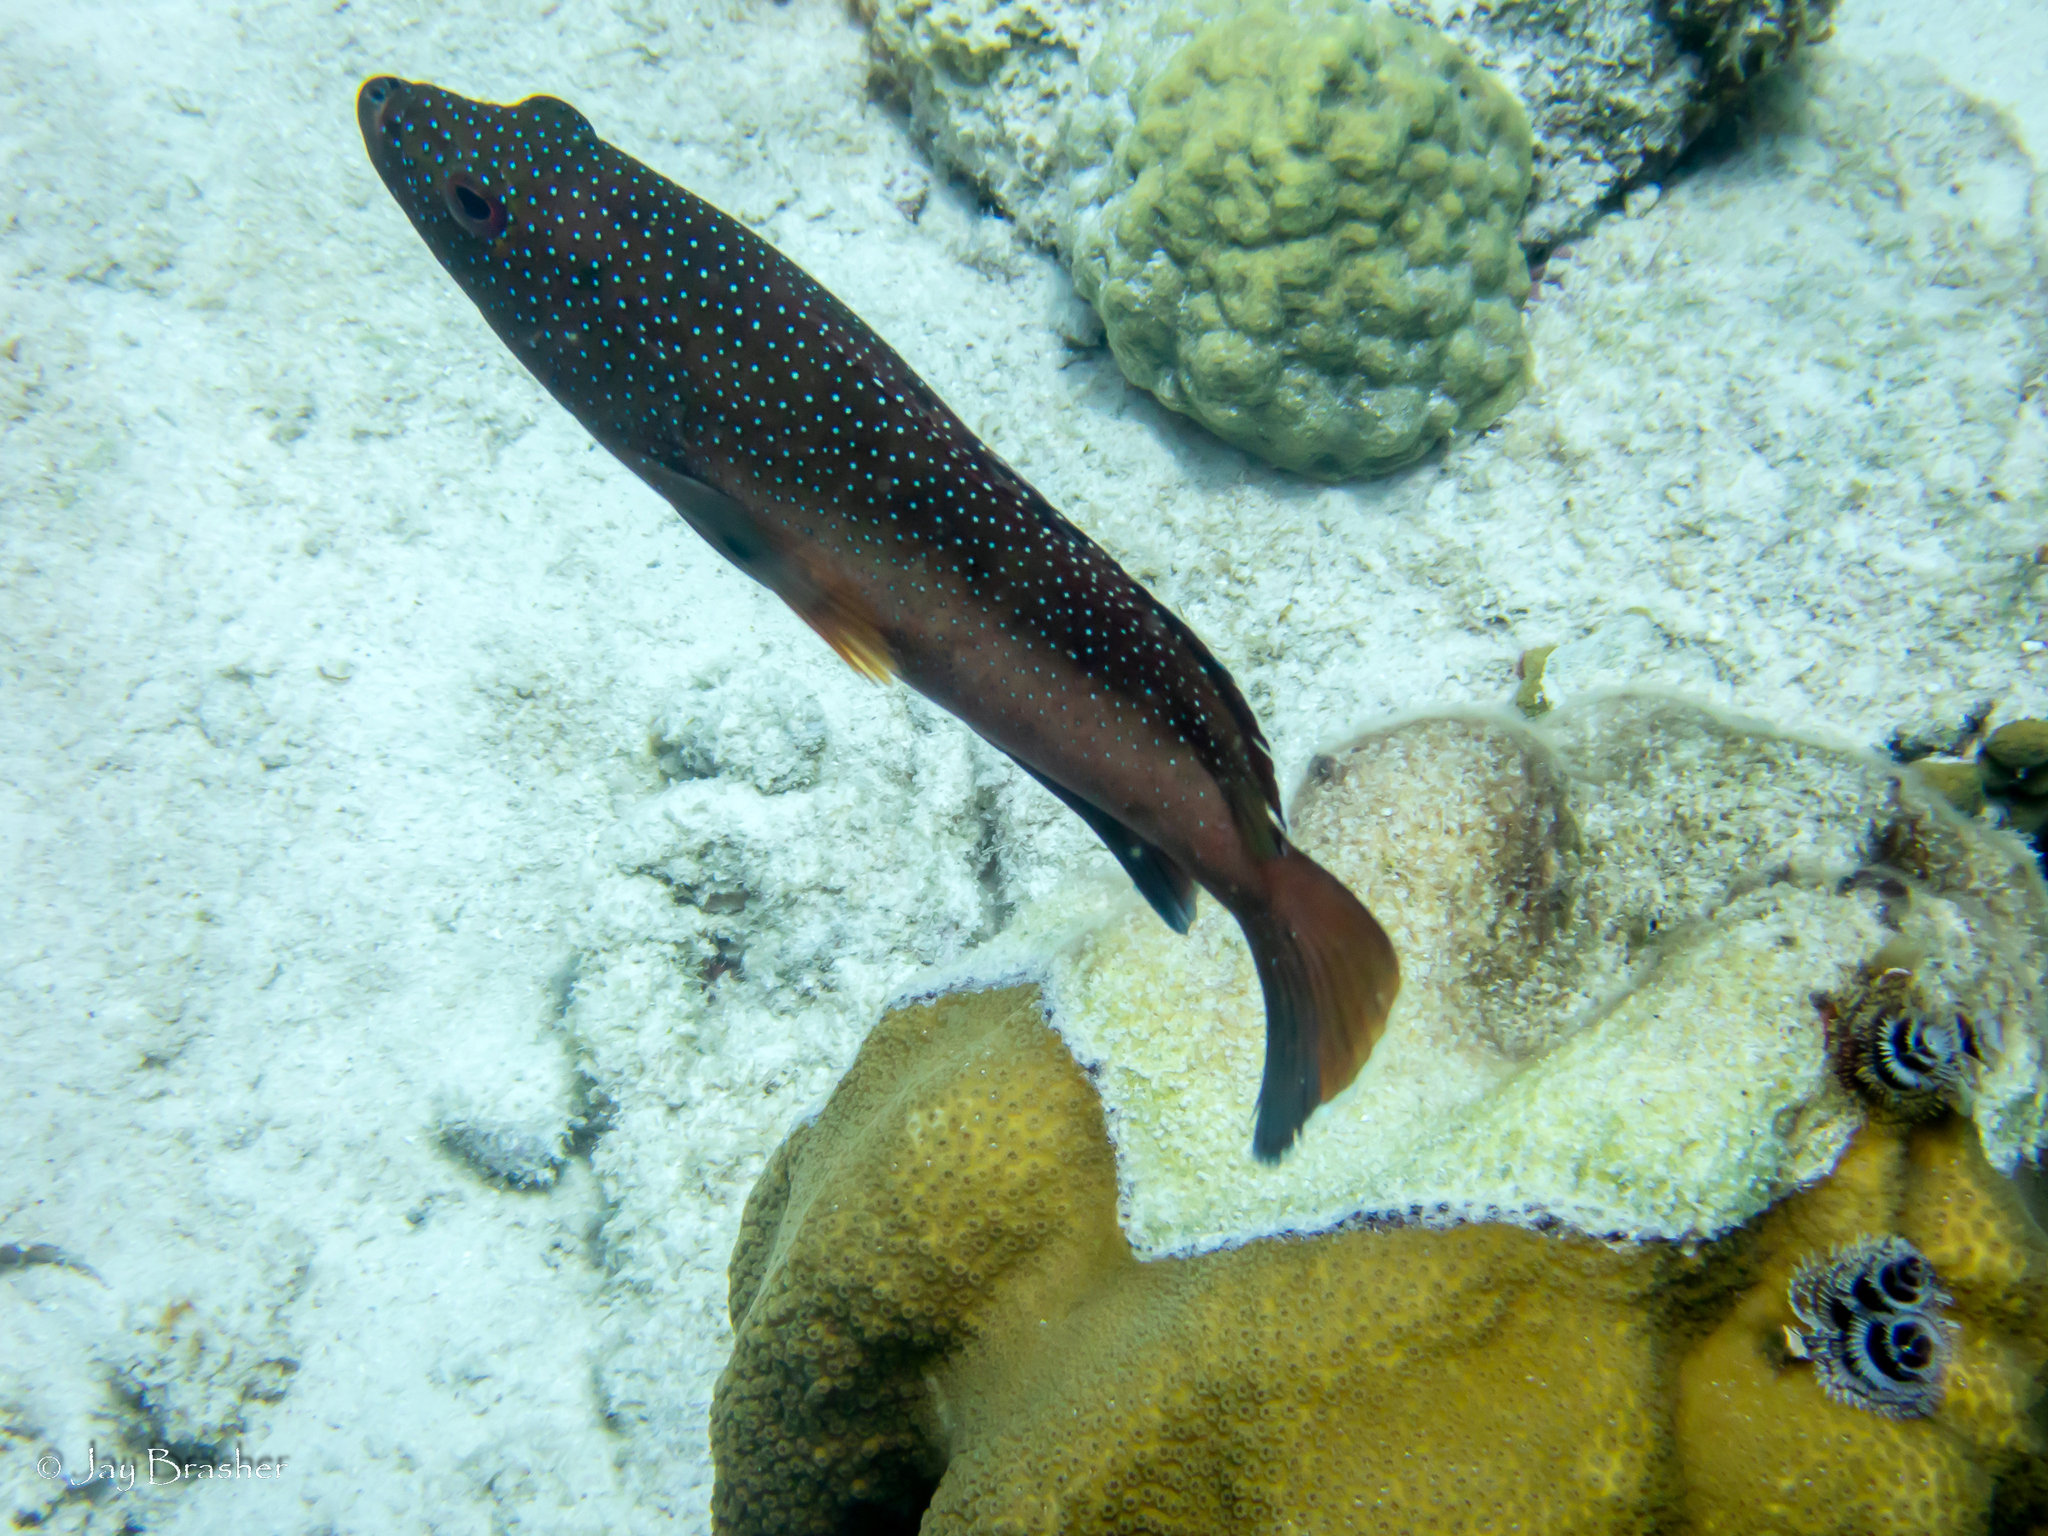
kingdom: Animalia
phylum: Cnidaria
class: Anthozoa
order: Scleractinia
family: Poritidae
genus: Porites
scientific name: Porites astreoides
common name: Mustard hill coral
